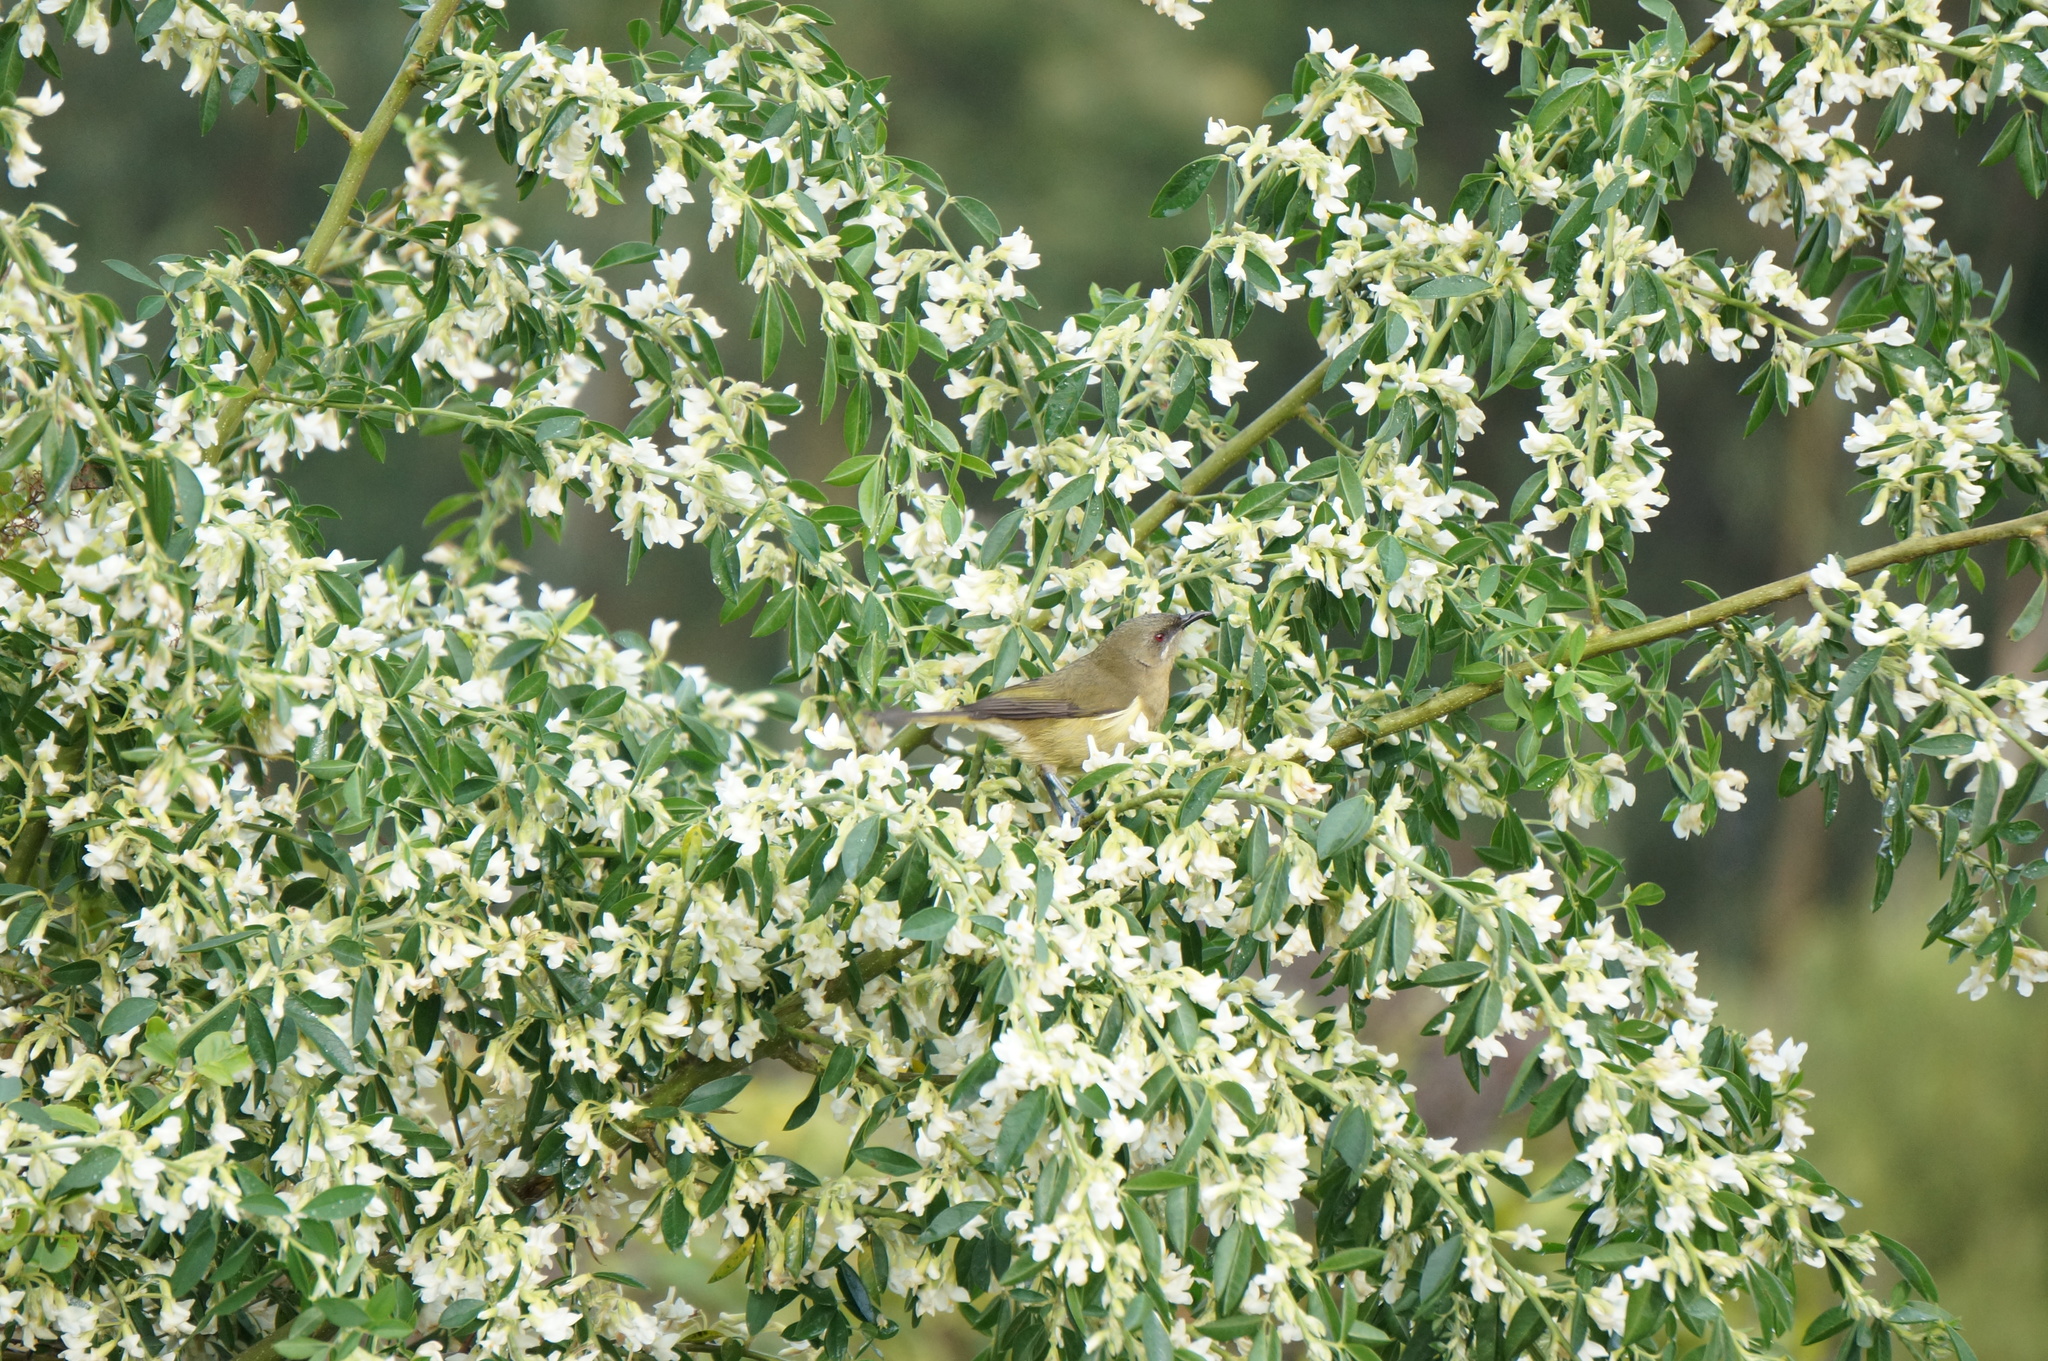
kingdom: Animalia
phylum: Chordata
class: Aves
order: Passeriformes
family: Meliphagidae
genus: Anthornis
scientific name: Anthornis melanura
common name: New zealand bellbird
